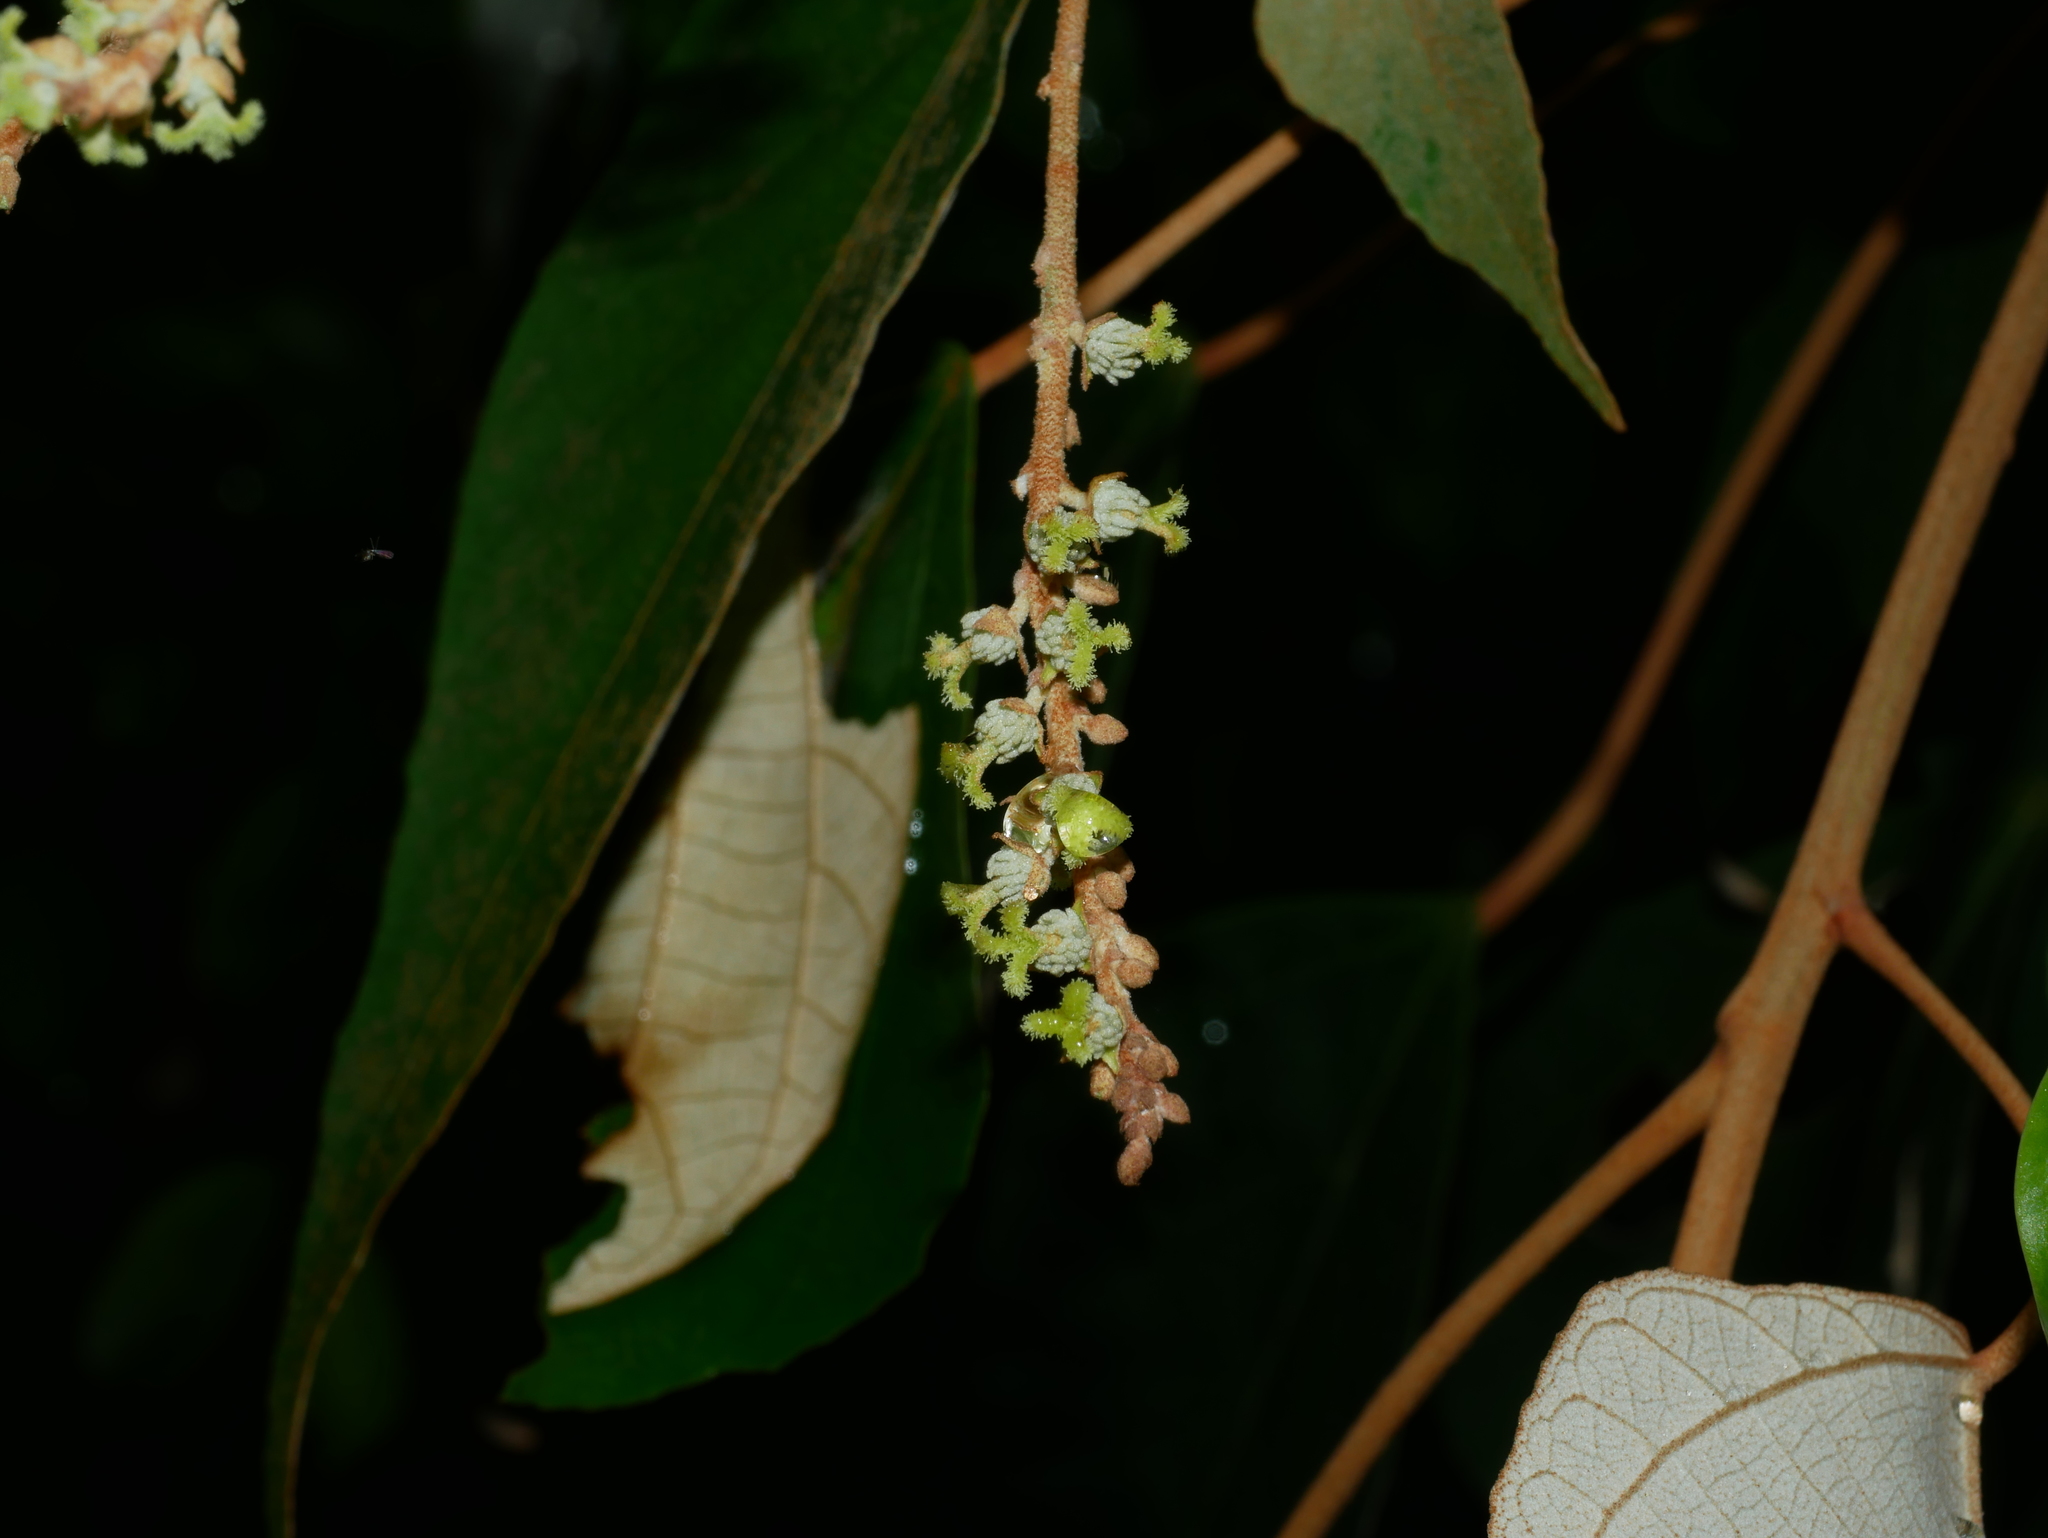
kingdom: Plantae
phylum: Tracheophyta
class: Magnoliopsida
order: Malpighiales
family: Euphorbiaceae
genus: Mallotus
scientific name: Mallotus paniculatus
